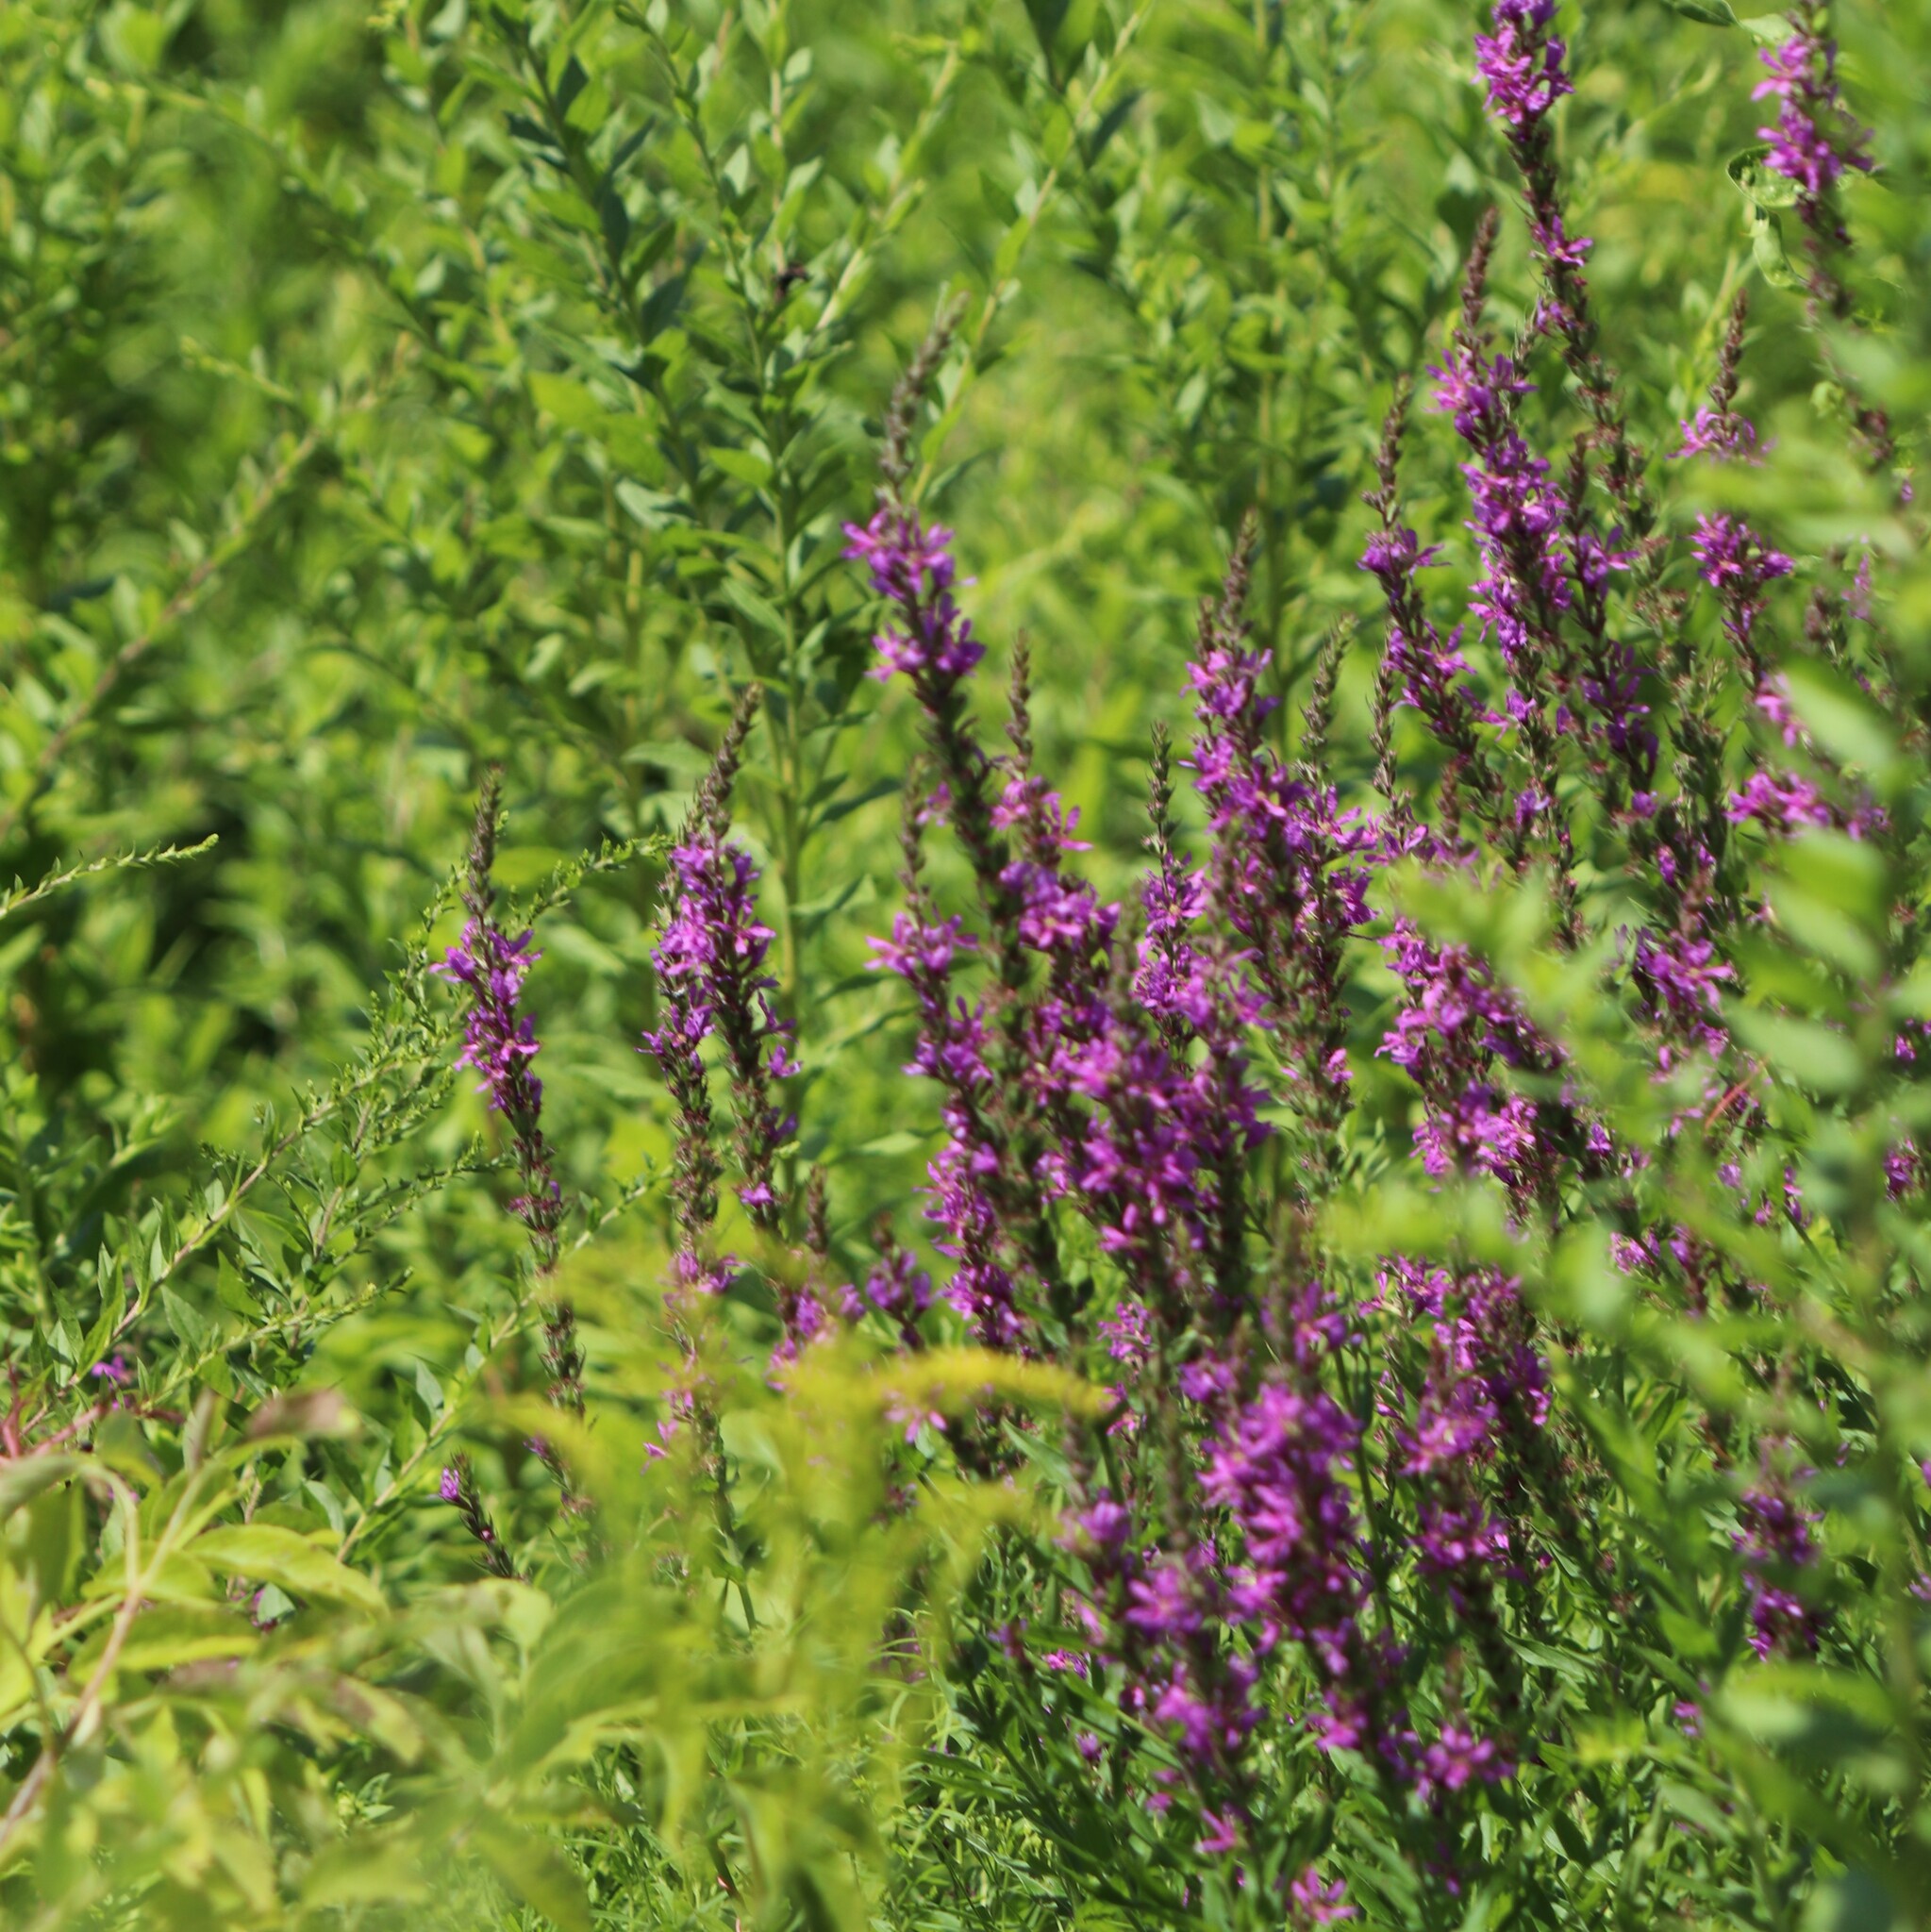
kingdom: Plantae
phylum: Tracheophyta
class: Magnoliopsida
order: Myrtales
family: Lythraceae
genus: Lythrum
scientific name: Lythrum salicaria
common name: Purple loosestrife
